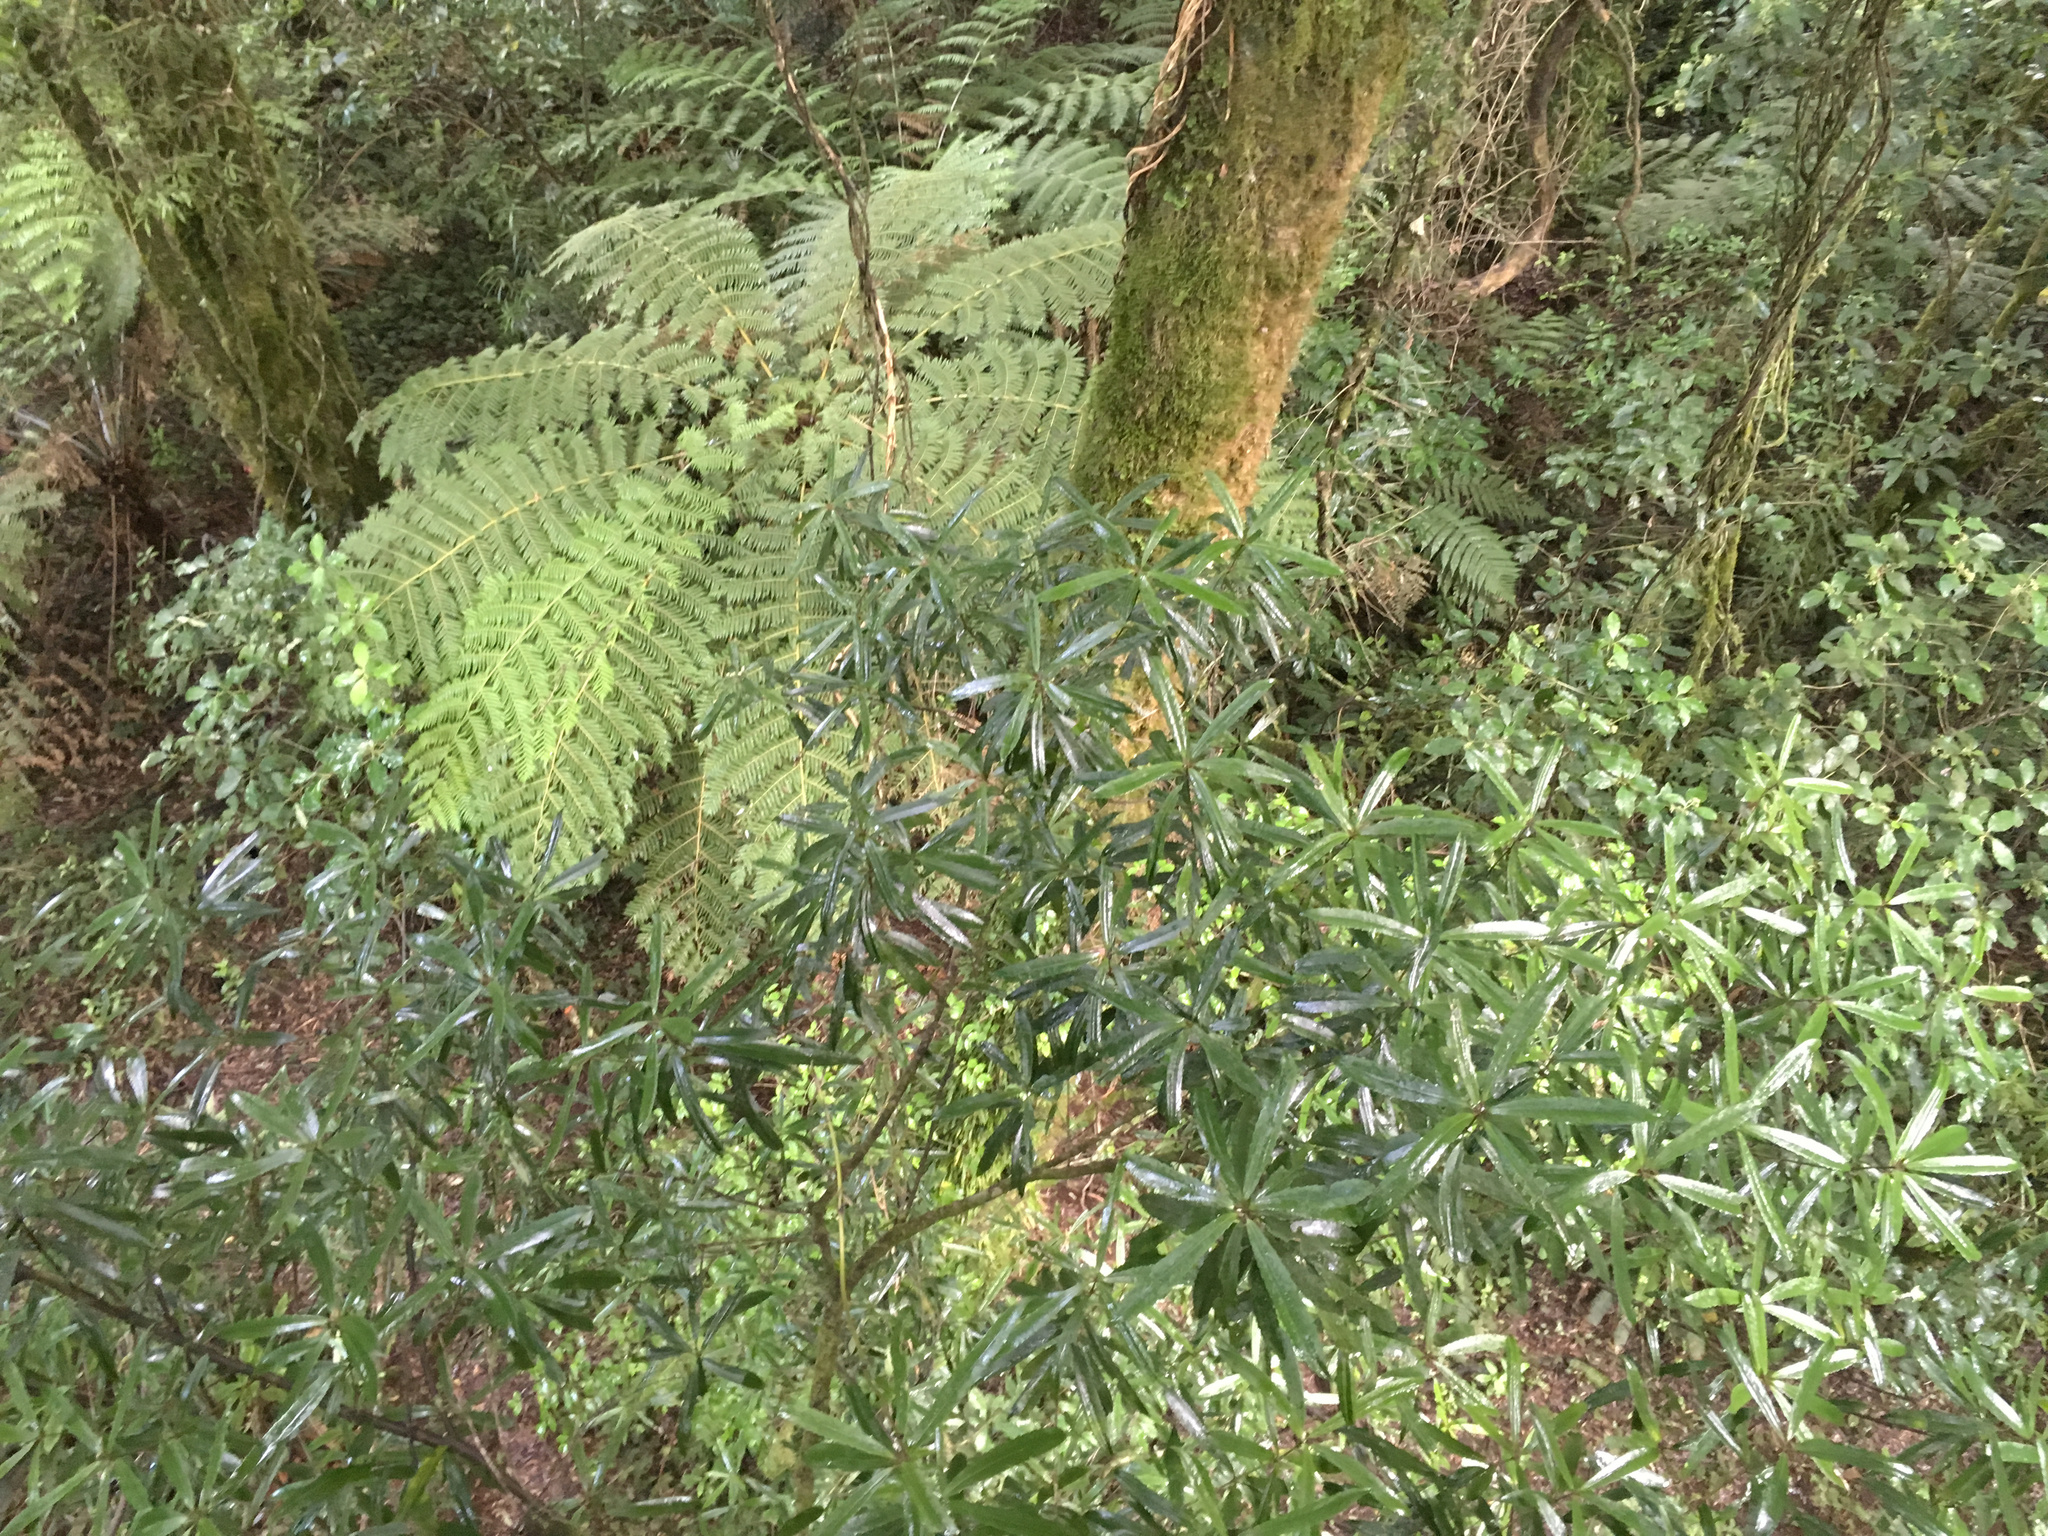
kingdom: Plantae
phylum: Tracheophyta
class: Magnoliopsida
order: Crossosomatales
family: Ixerbaceae
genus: Ixerba
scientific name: Ixerba brexioides
